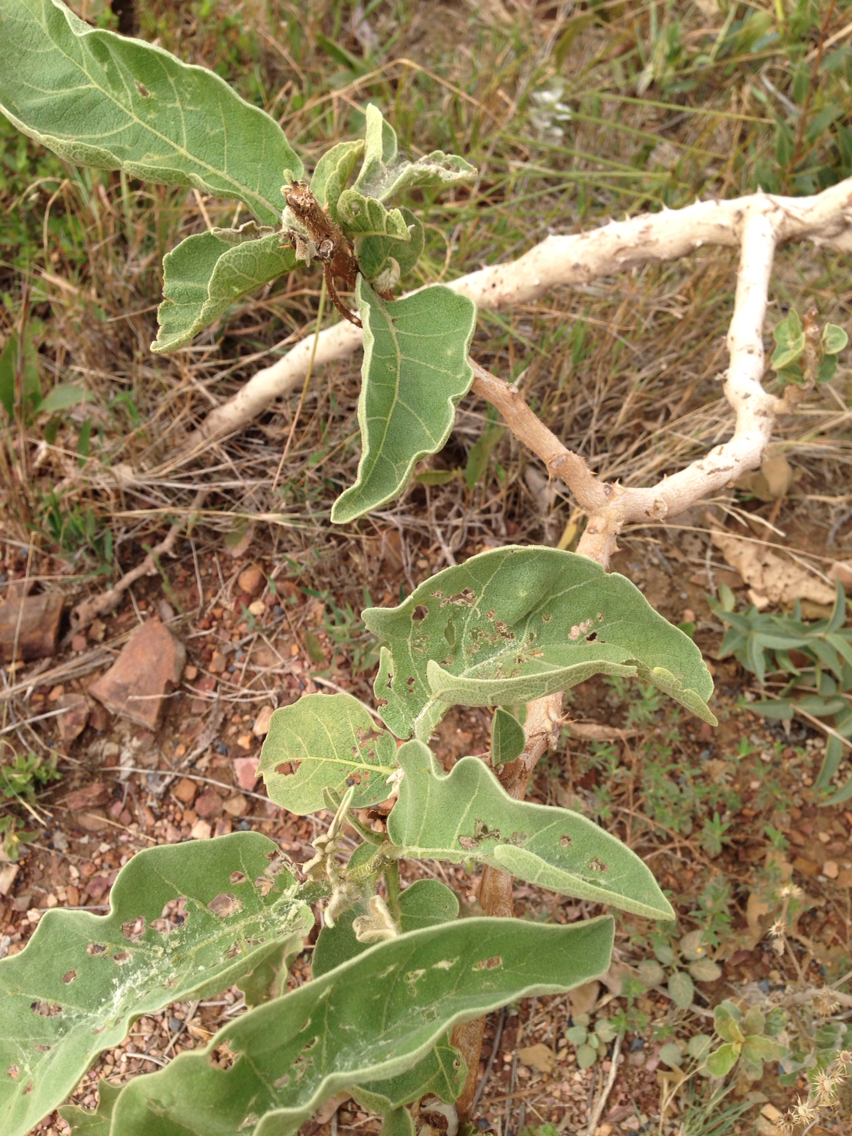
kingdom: Plantae
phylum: Tracheophyta
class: Magnoliopsida
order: Solanales
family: Solanaceae
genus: Solanum
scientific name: Solanum lycocarpum
